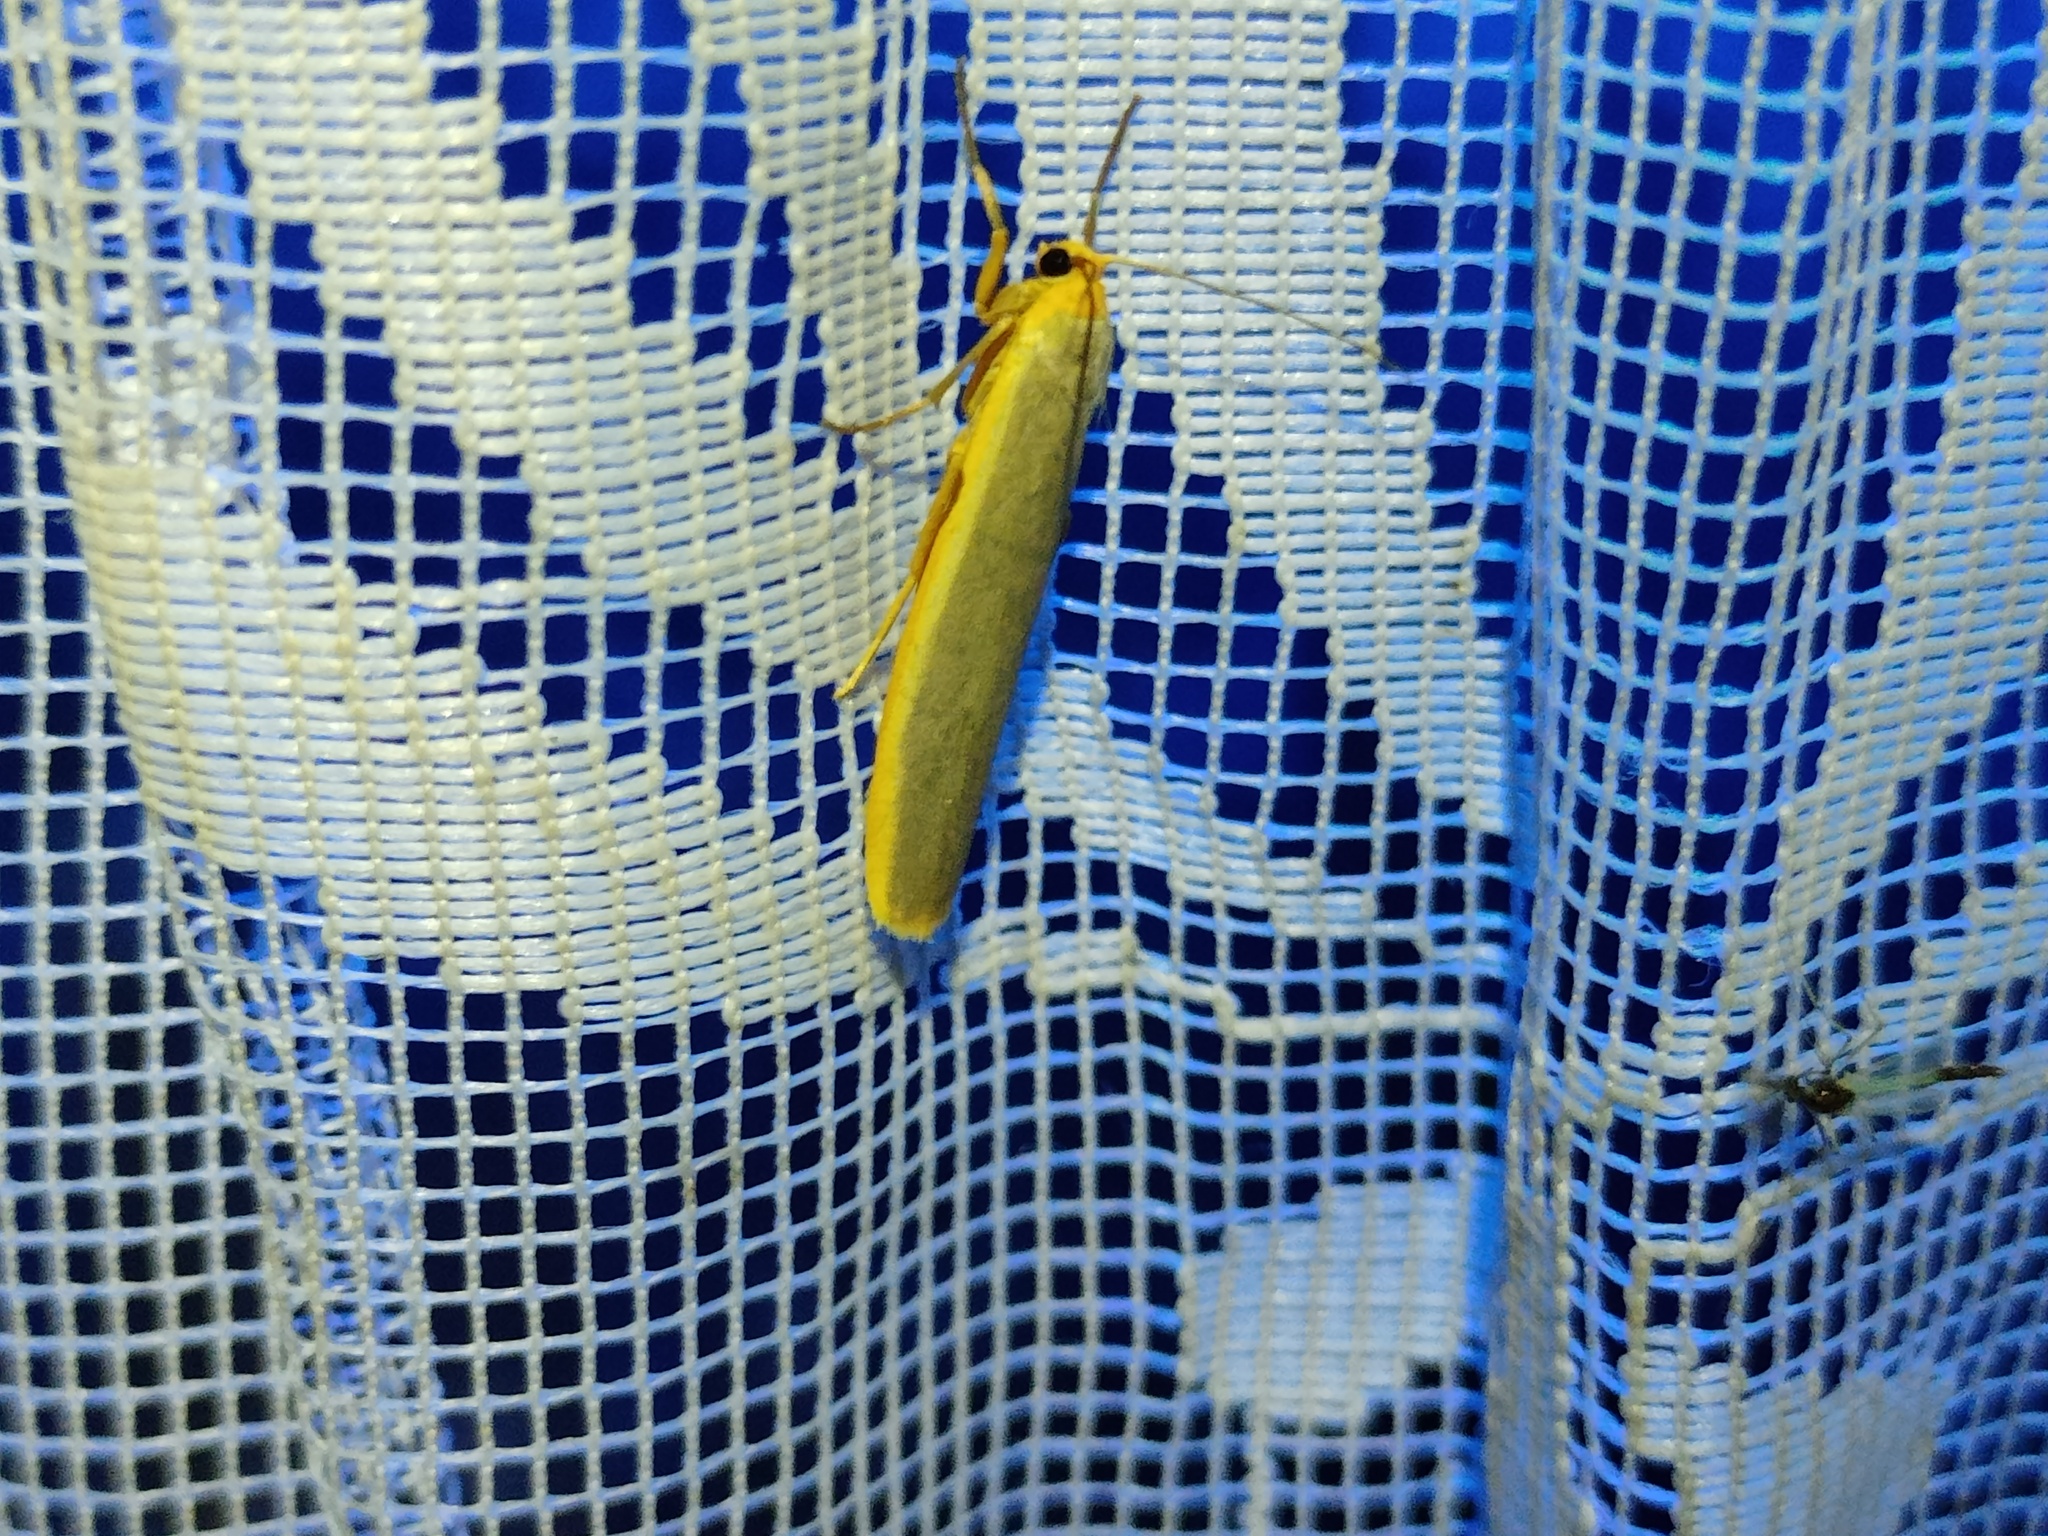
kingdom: Animalia
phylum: Arthropoda
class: Insecta
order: Lepidoptera
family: Erebidae
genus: Manulea
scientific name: Manulea complana
